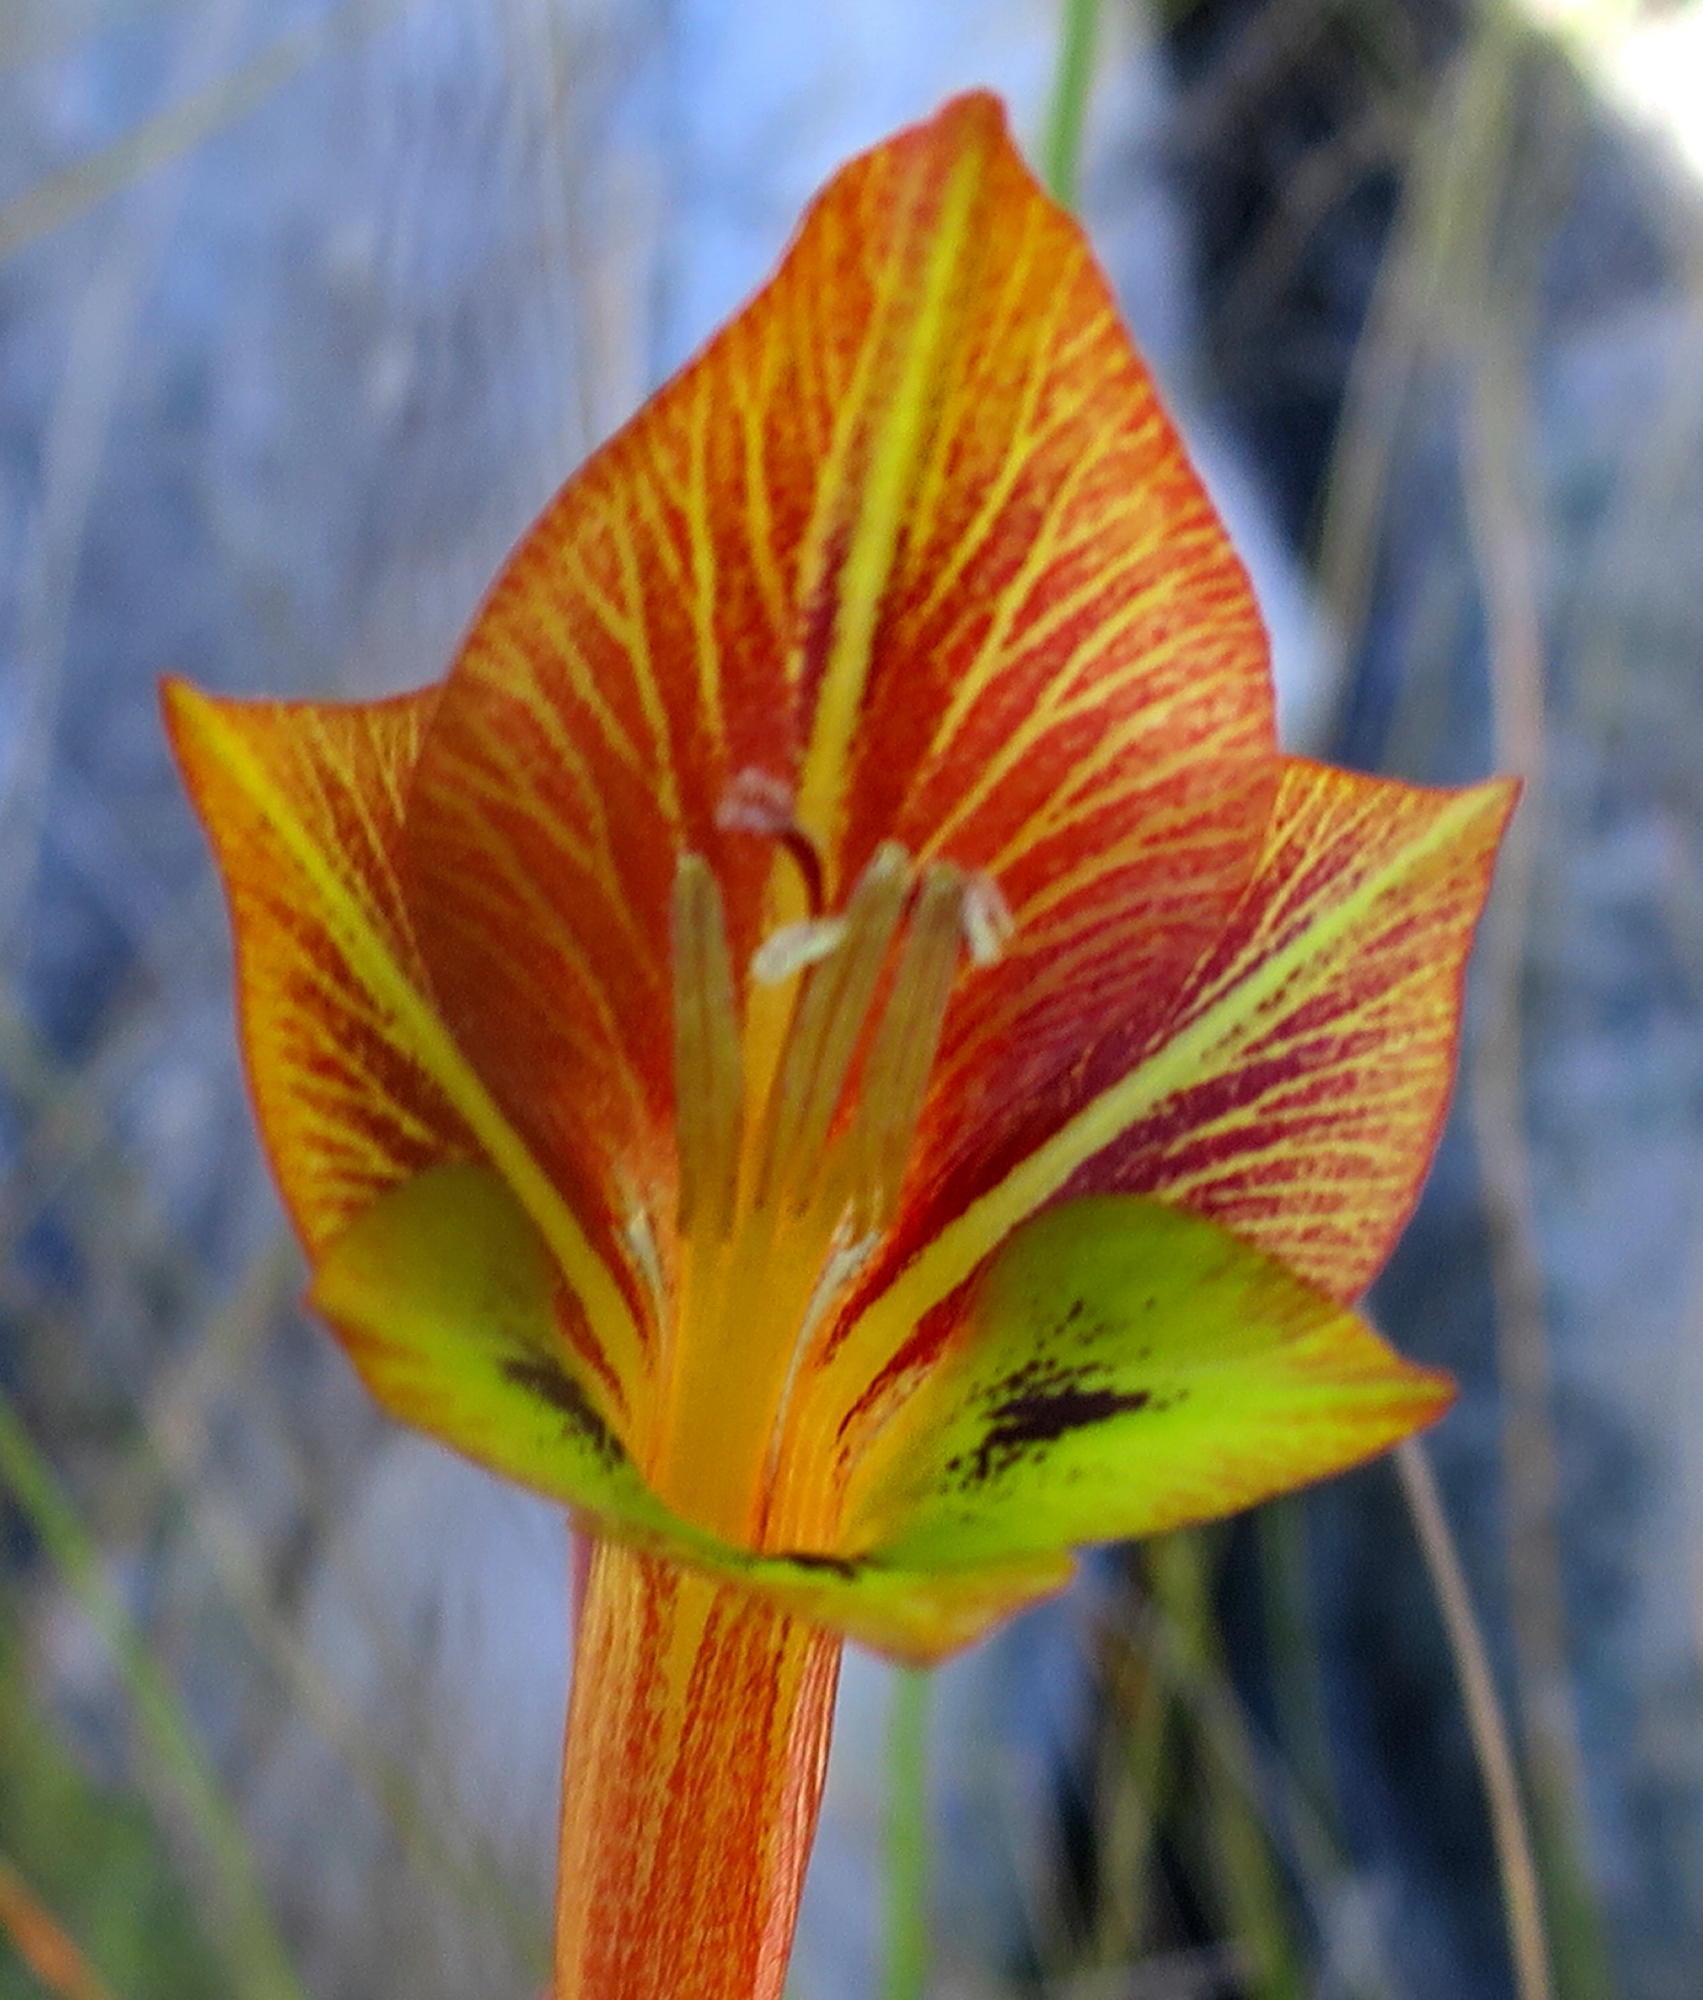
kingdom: Plantae
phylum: Tracheophyta
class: Liliopsida
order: Asparagales
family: Iridaceae
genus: Gladiolus
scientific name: Gladiolus fourcadei
